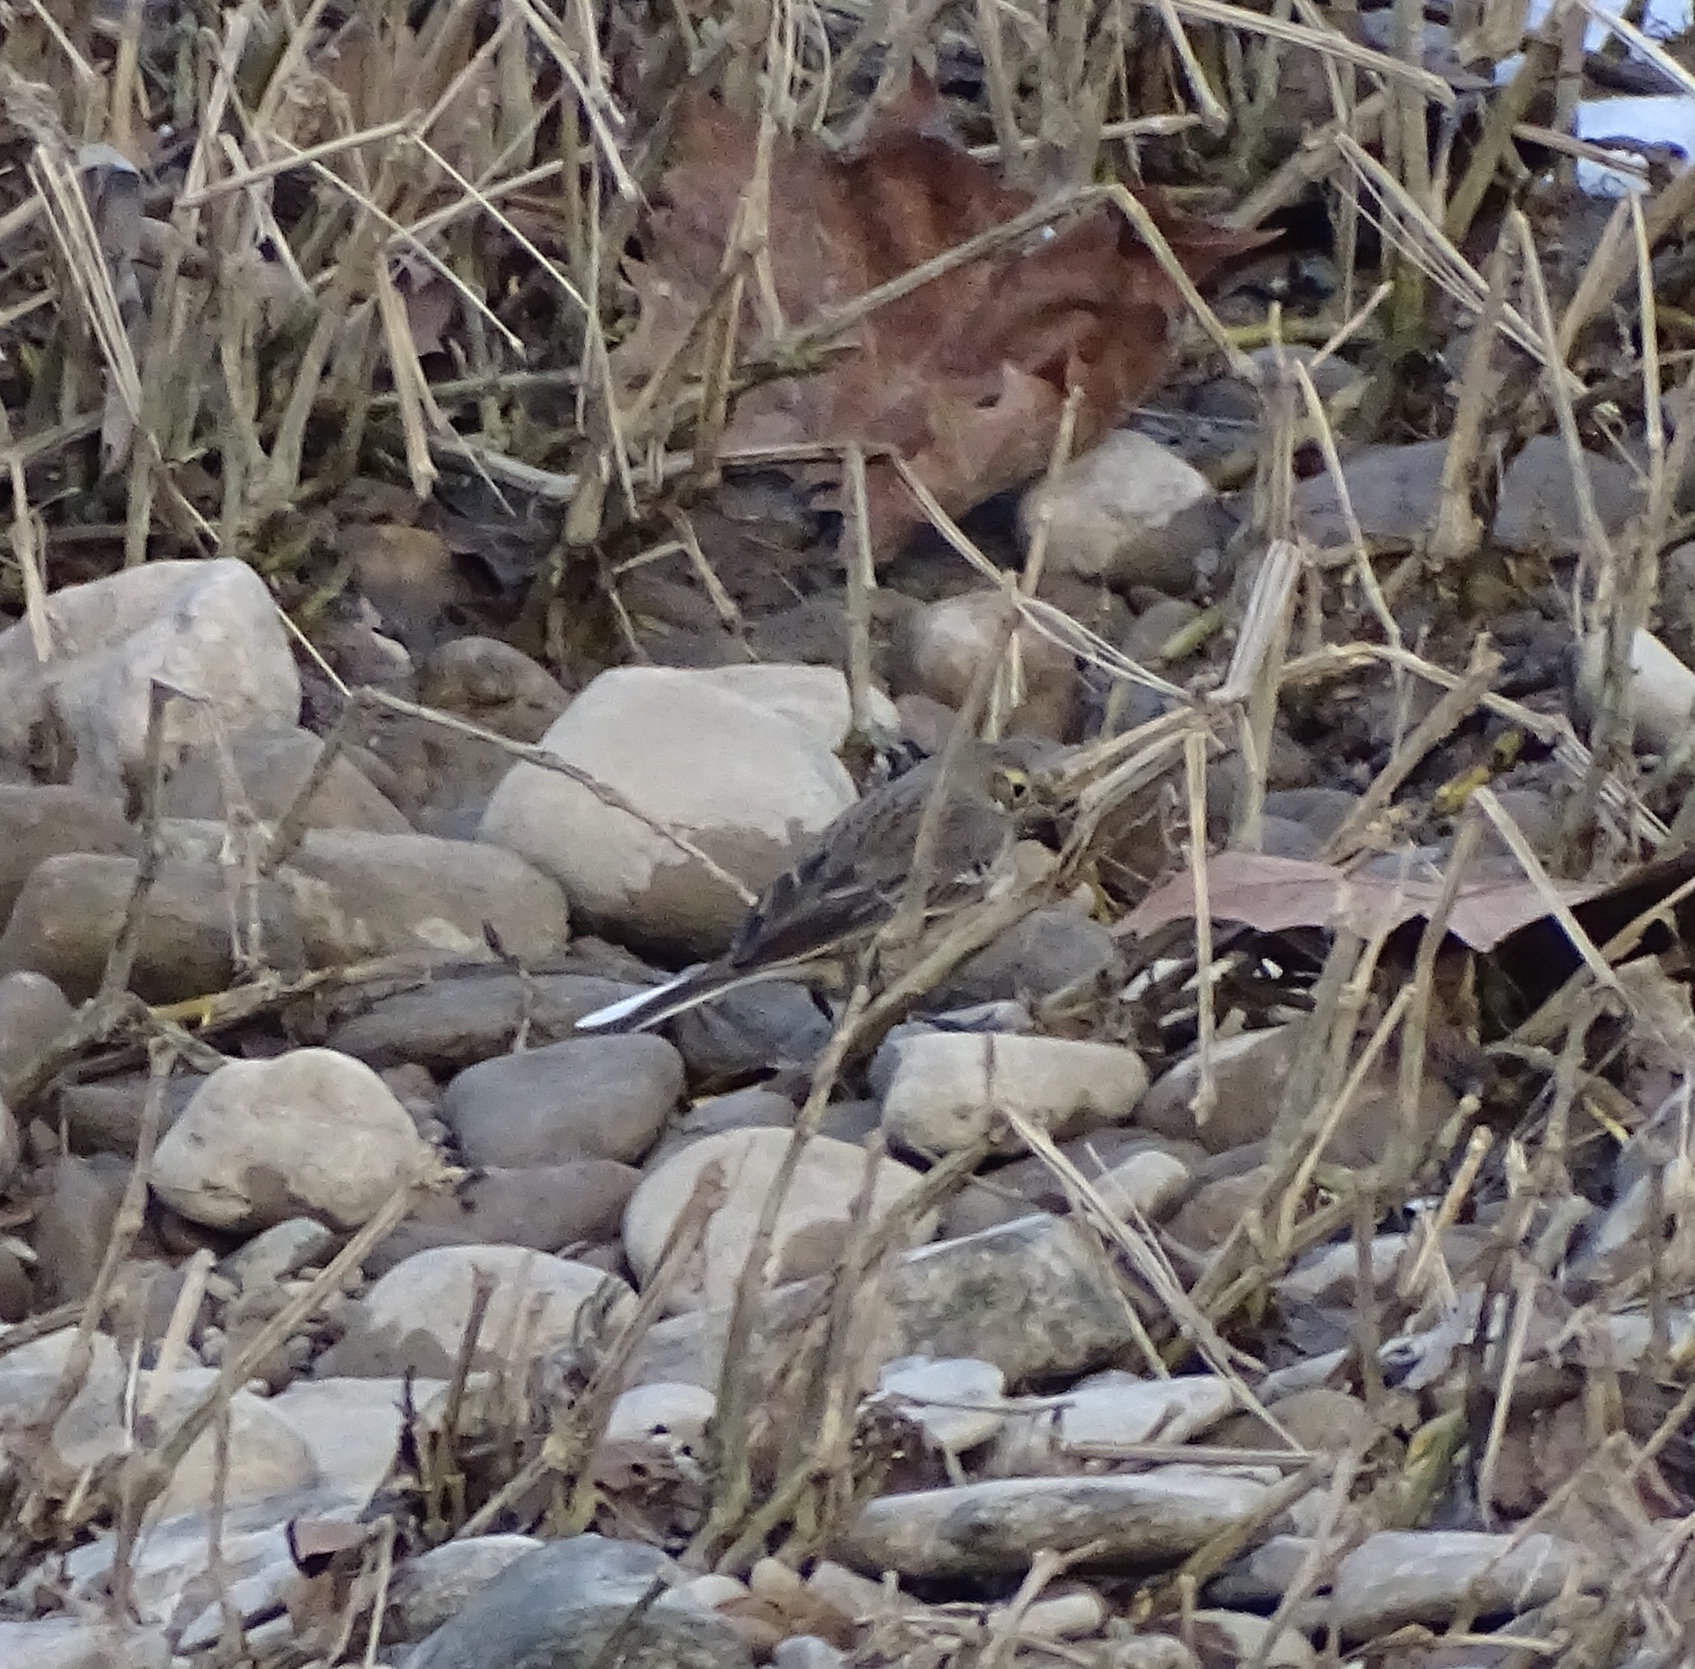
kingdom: Animalia
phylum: Chordata
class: Aves
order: Passeriformes
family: Motacillidae
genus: Anthus
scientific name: Anthus rubescens
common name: Buff-bellied pipit
